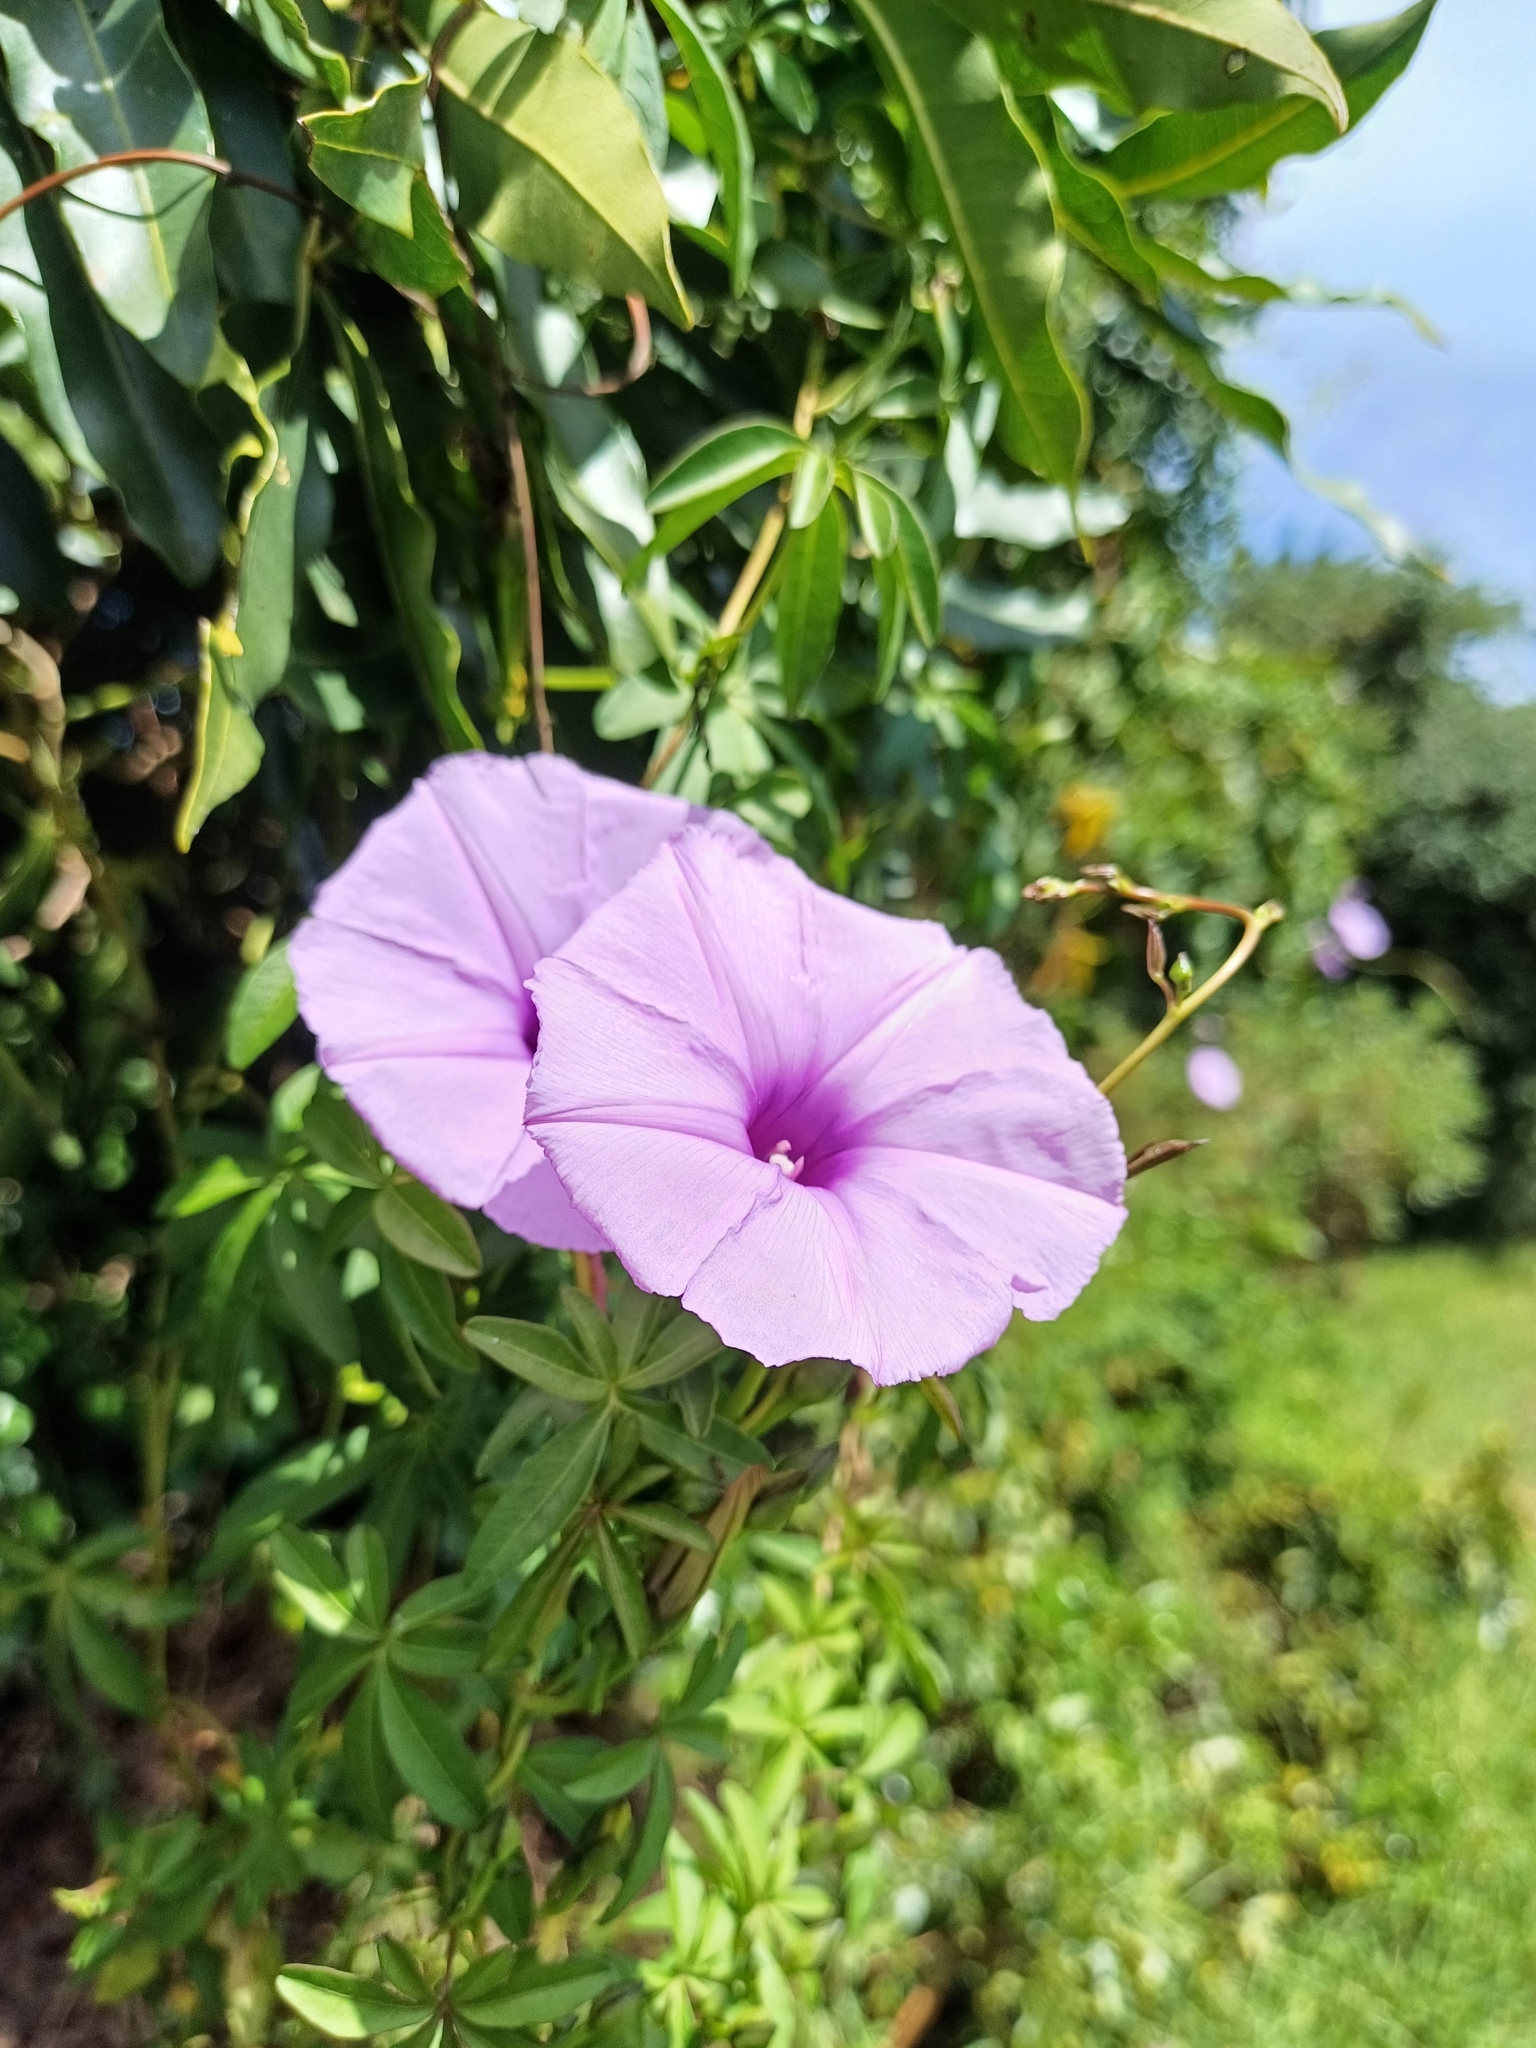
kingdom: Plantae
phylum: Tracheophyta
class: Magnoliopsida
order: Solanales
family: Convolvulaceae
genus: Ipomoea
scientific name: Ipomoea cairica
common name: Mile a minute vine
